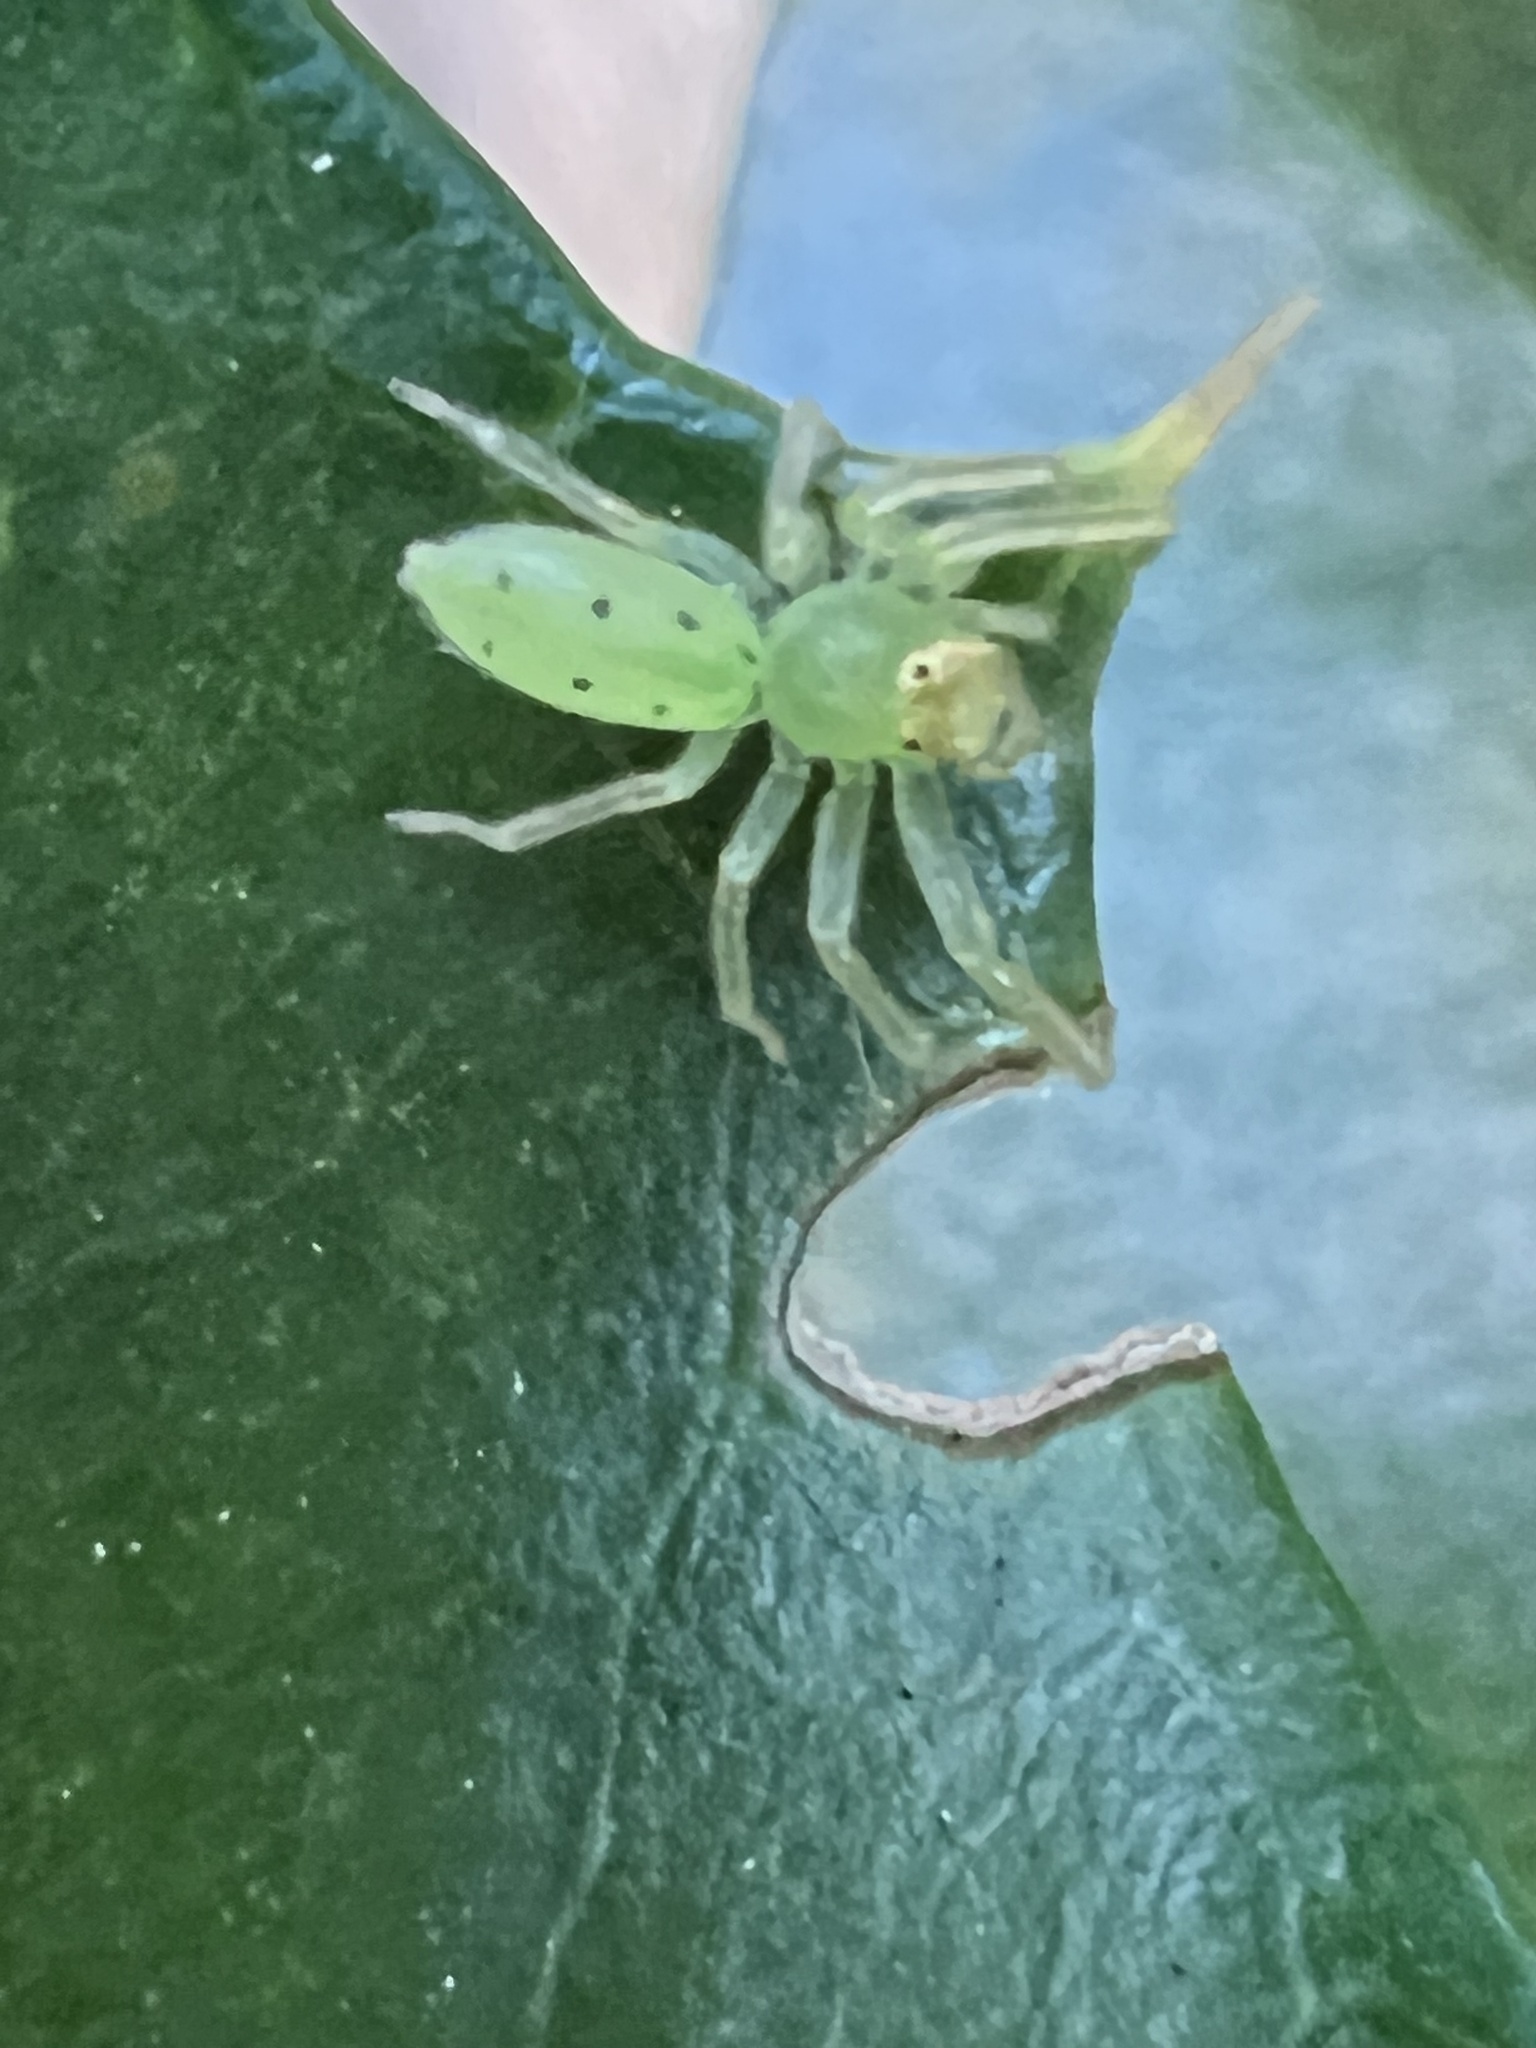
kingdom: Animalia
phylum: Arthropoda
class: Arachnida
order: Araneae
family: Salticidae
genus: Lyssomanes
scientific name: Lyssomanes viridis
